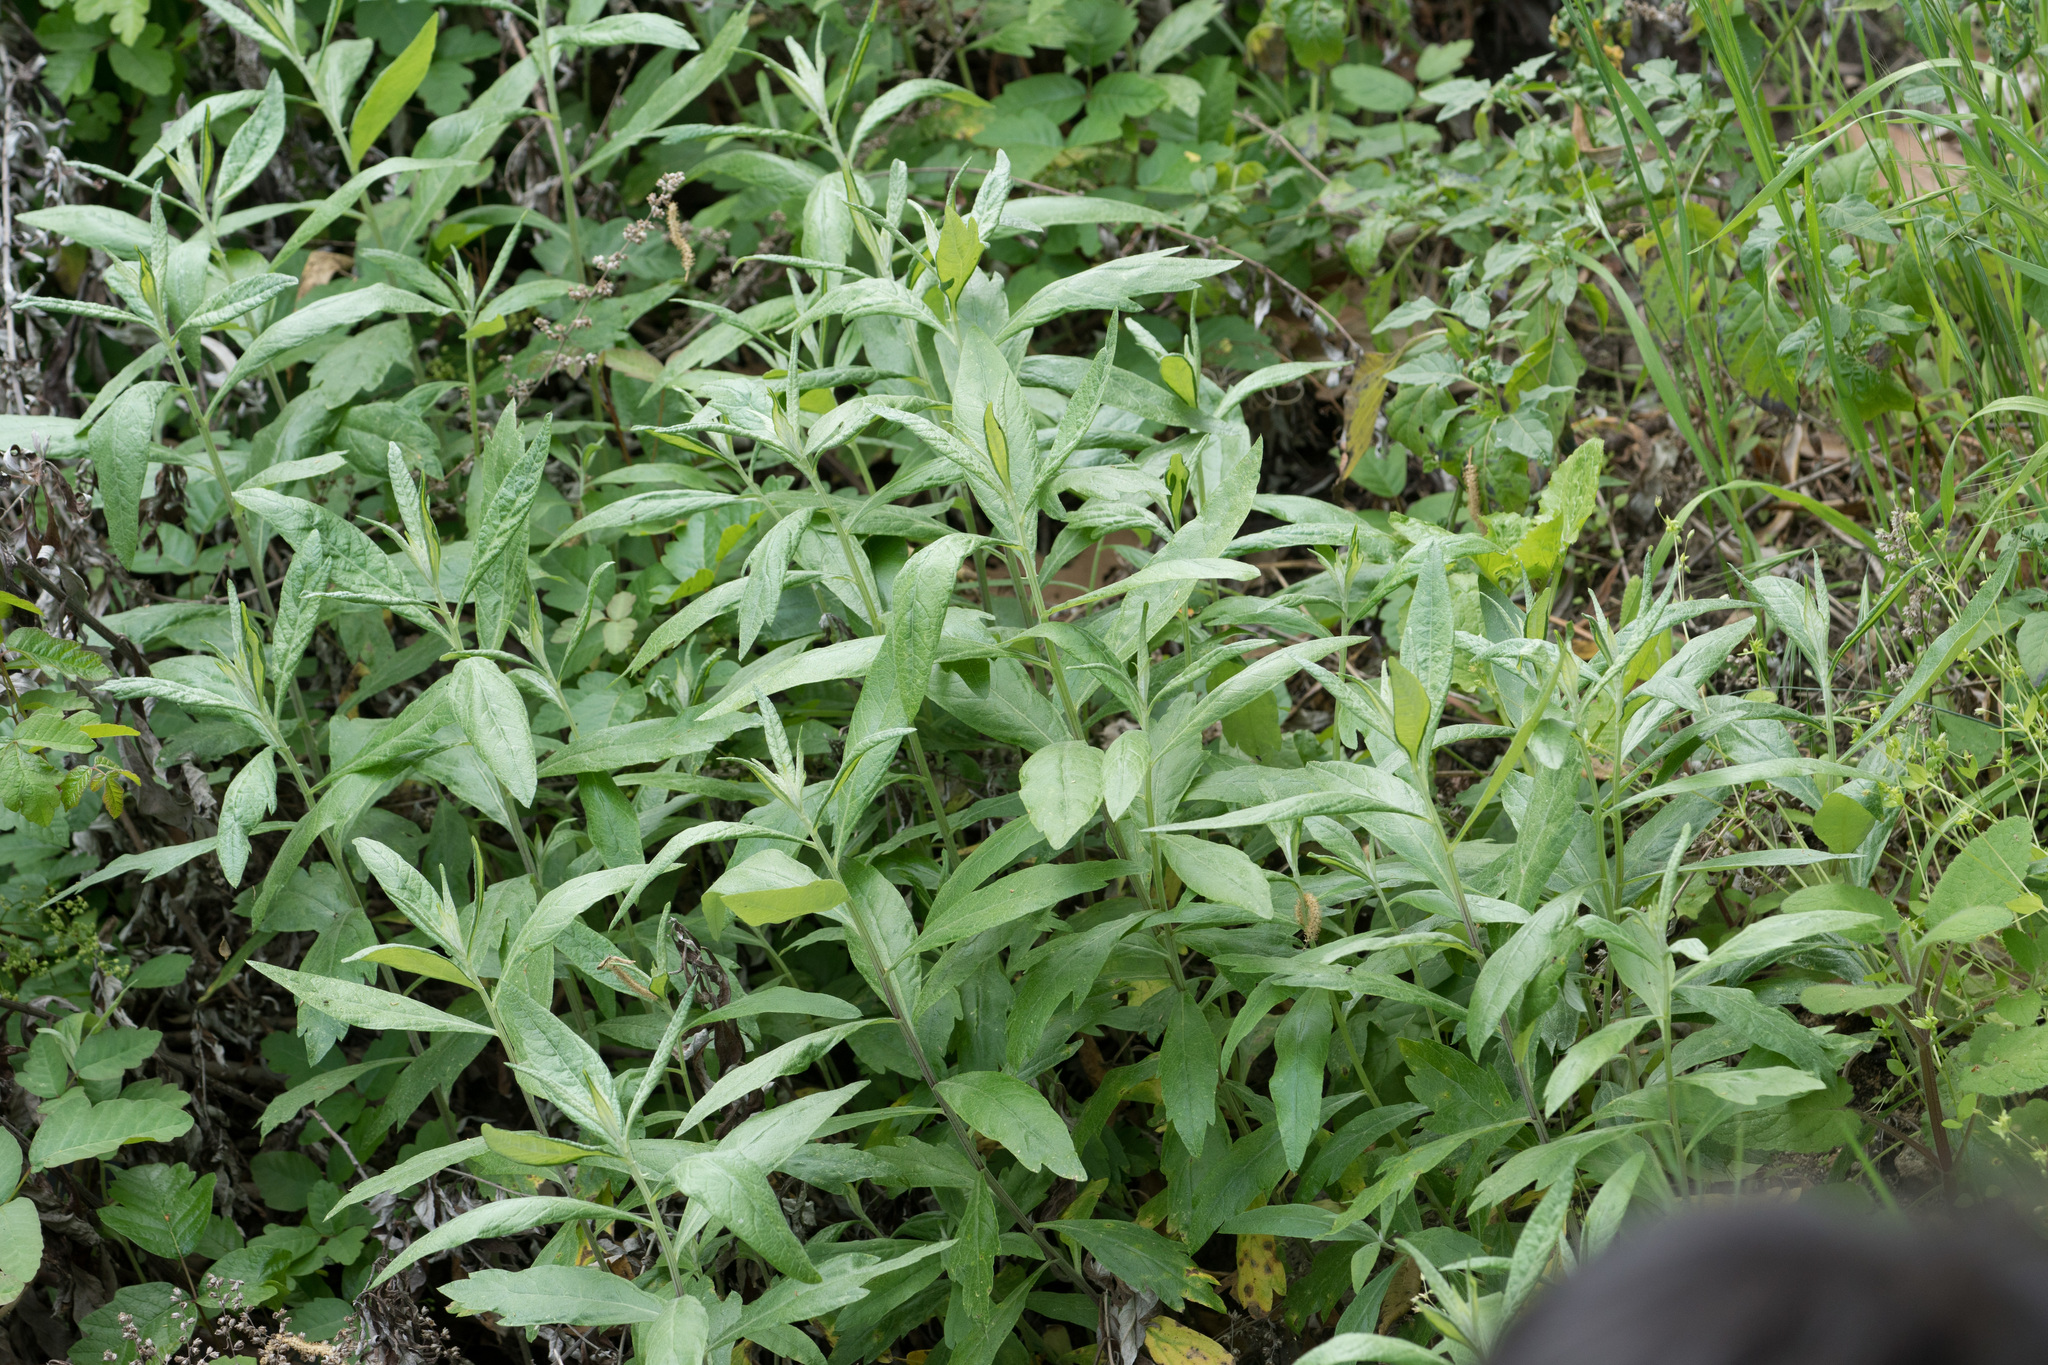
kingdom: Plantae
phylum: Tracheophyta
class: Magnoliopsida
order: Asterales
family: Asteraceae
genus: Artemisia
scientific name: Artemisia douglasiana
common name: Northwest mugwort
